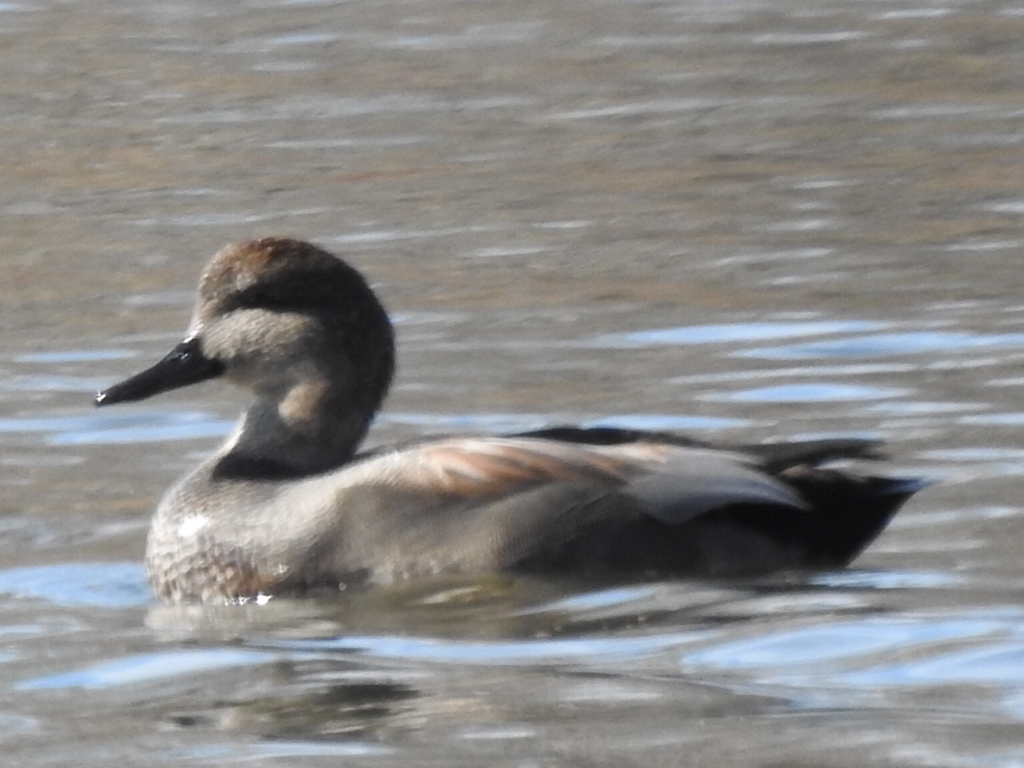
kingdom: Animalia
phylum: Chordata
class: Aves
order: Anseriformes
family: Anatidae
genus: Mareca
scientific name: Mareca strepera
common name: Gadwall
